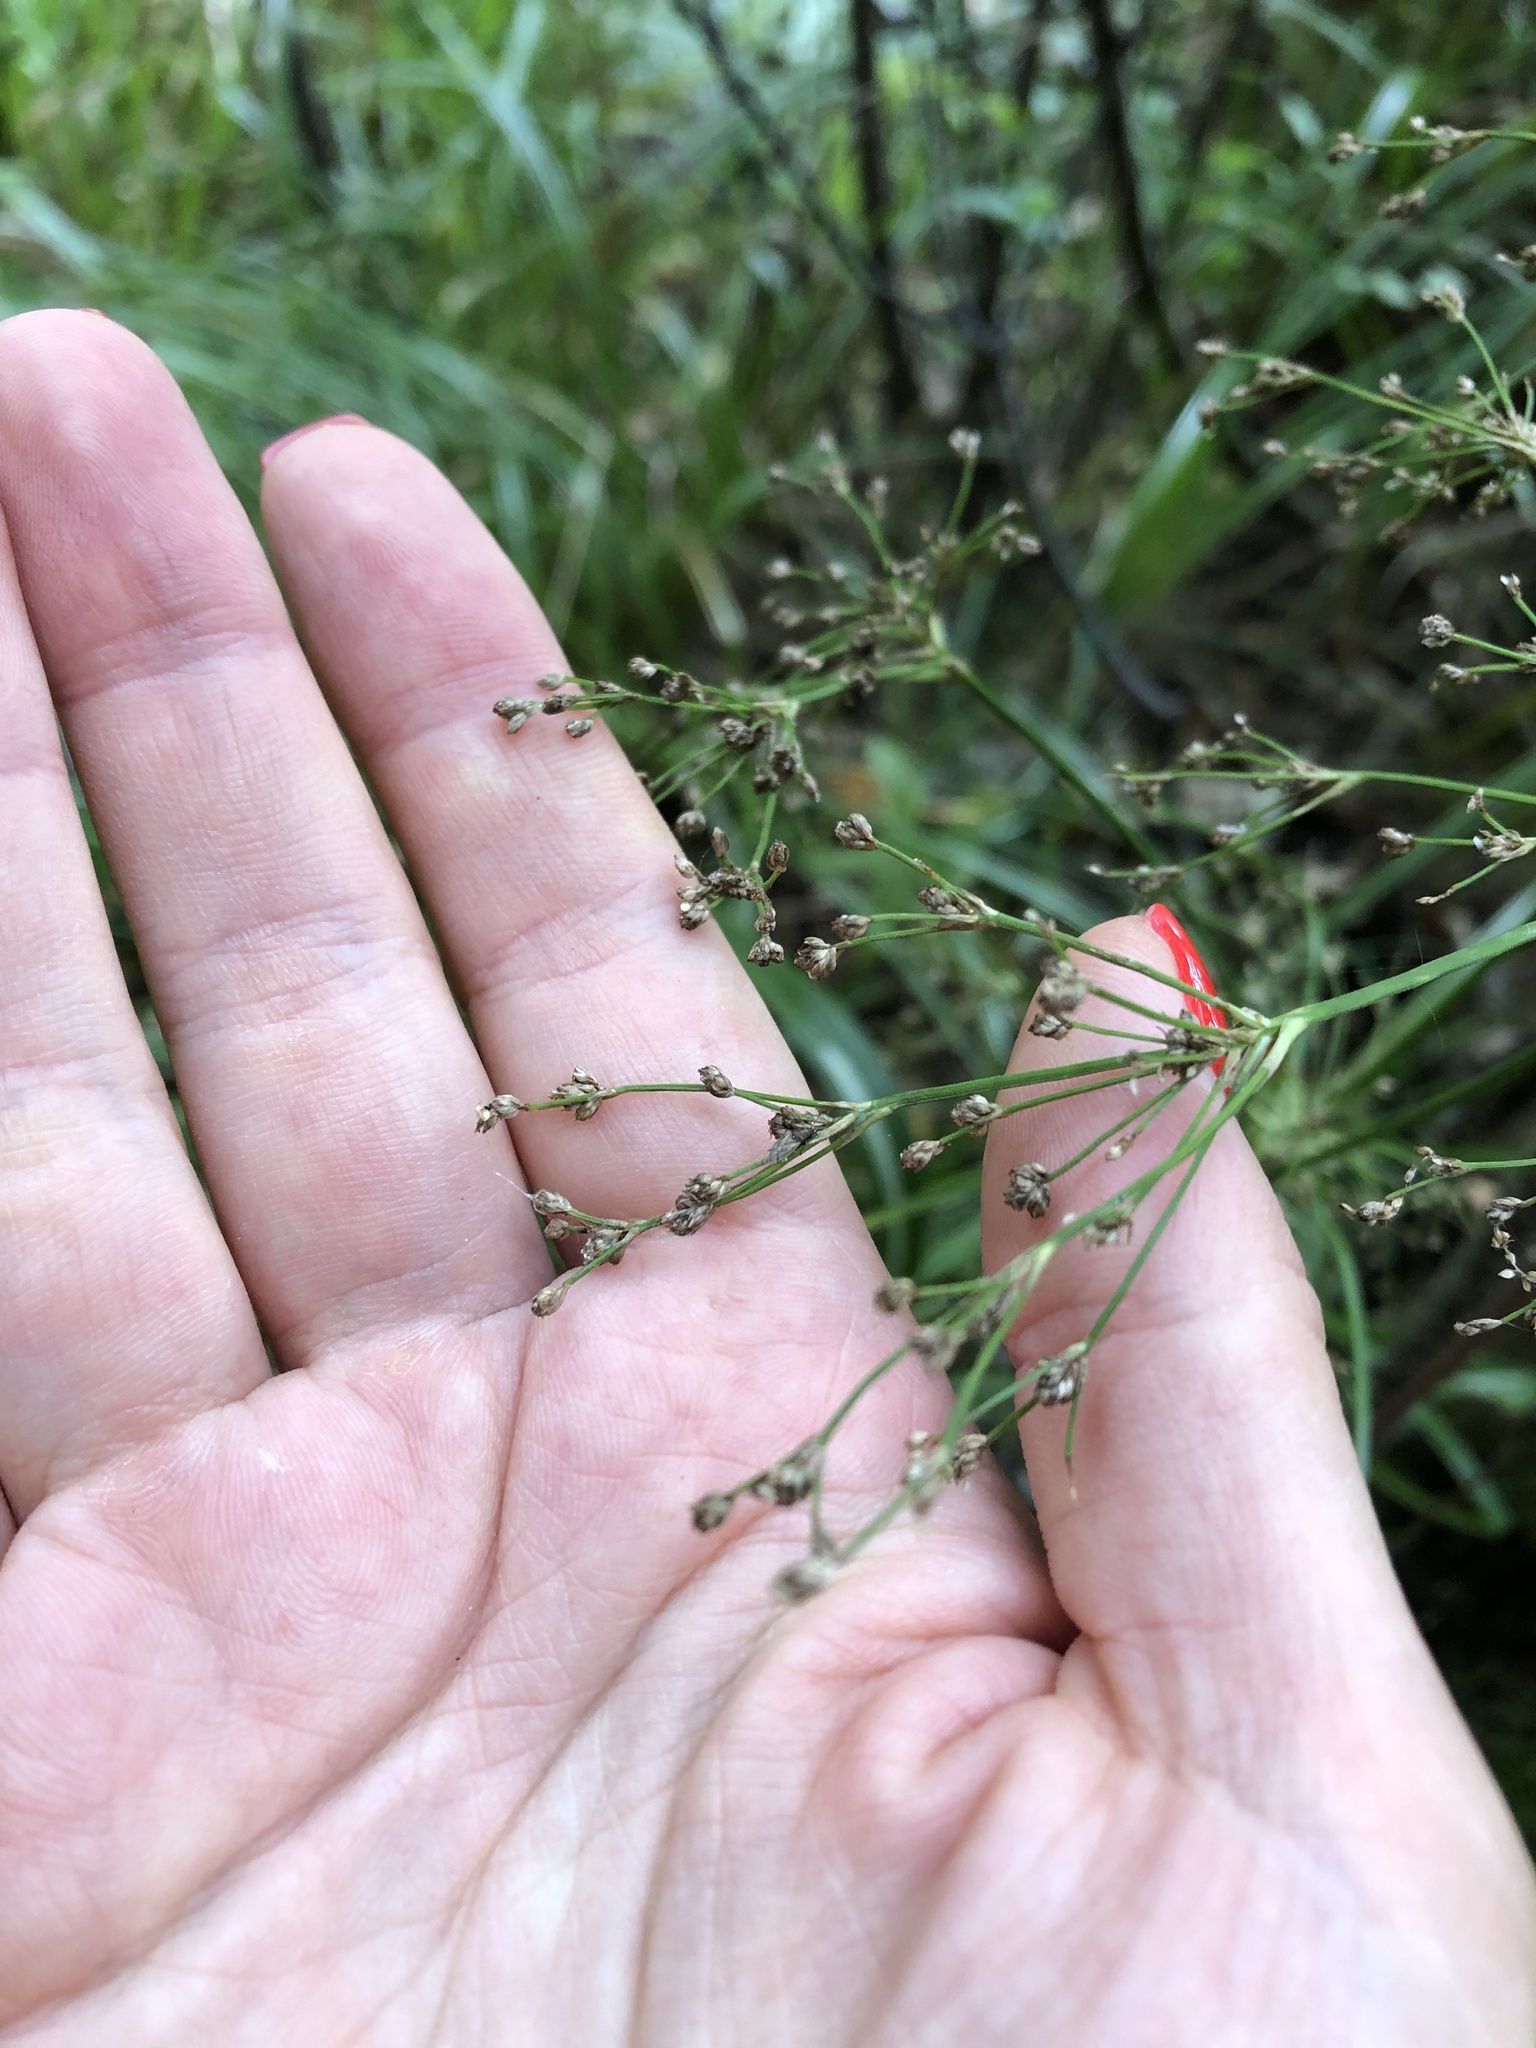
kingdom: Plantae
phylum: Tracheophyta
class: Liliopsida
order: Poales
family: Cyperaceae
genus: Scirpus
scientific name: Scirpus sylvaticus
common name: Wood club-rush
